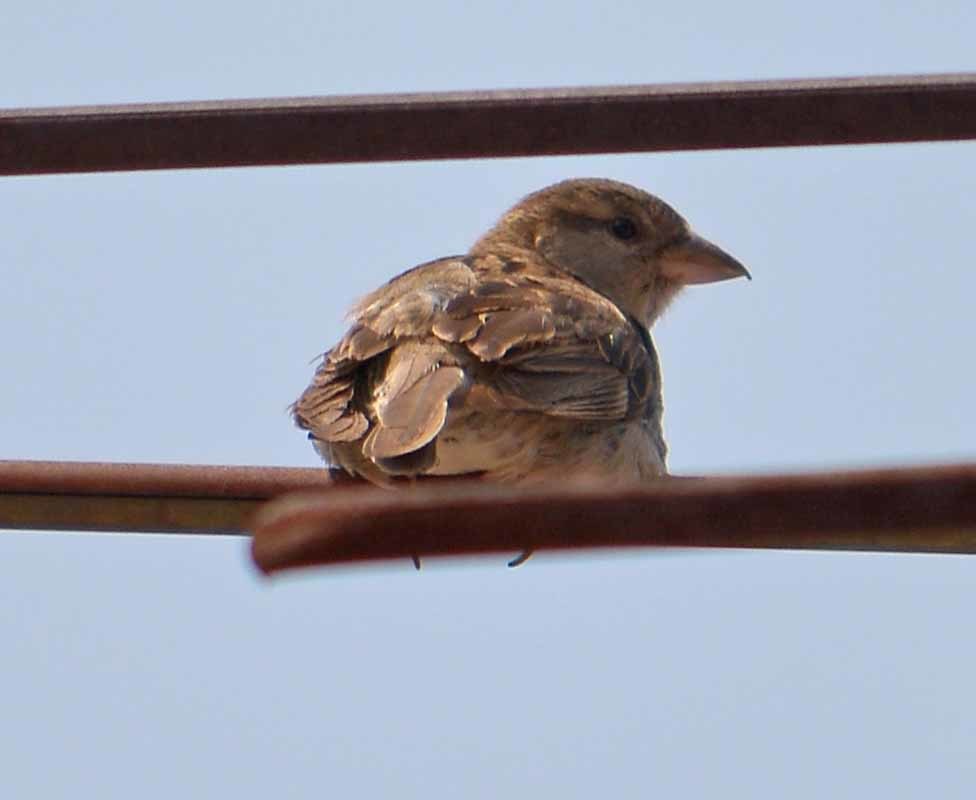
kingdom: Animalia
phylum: Chordata
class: Aves
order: Passeriformes
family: Passeridae
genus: Passer
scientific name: Passer domesticus
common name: House sparrow
